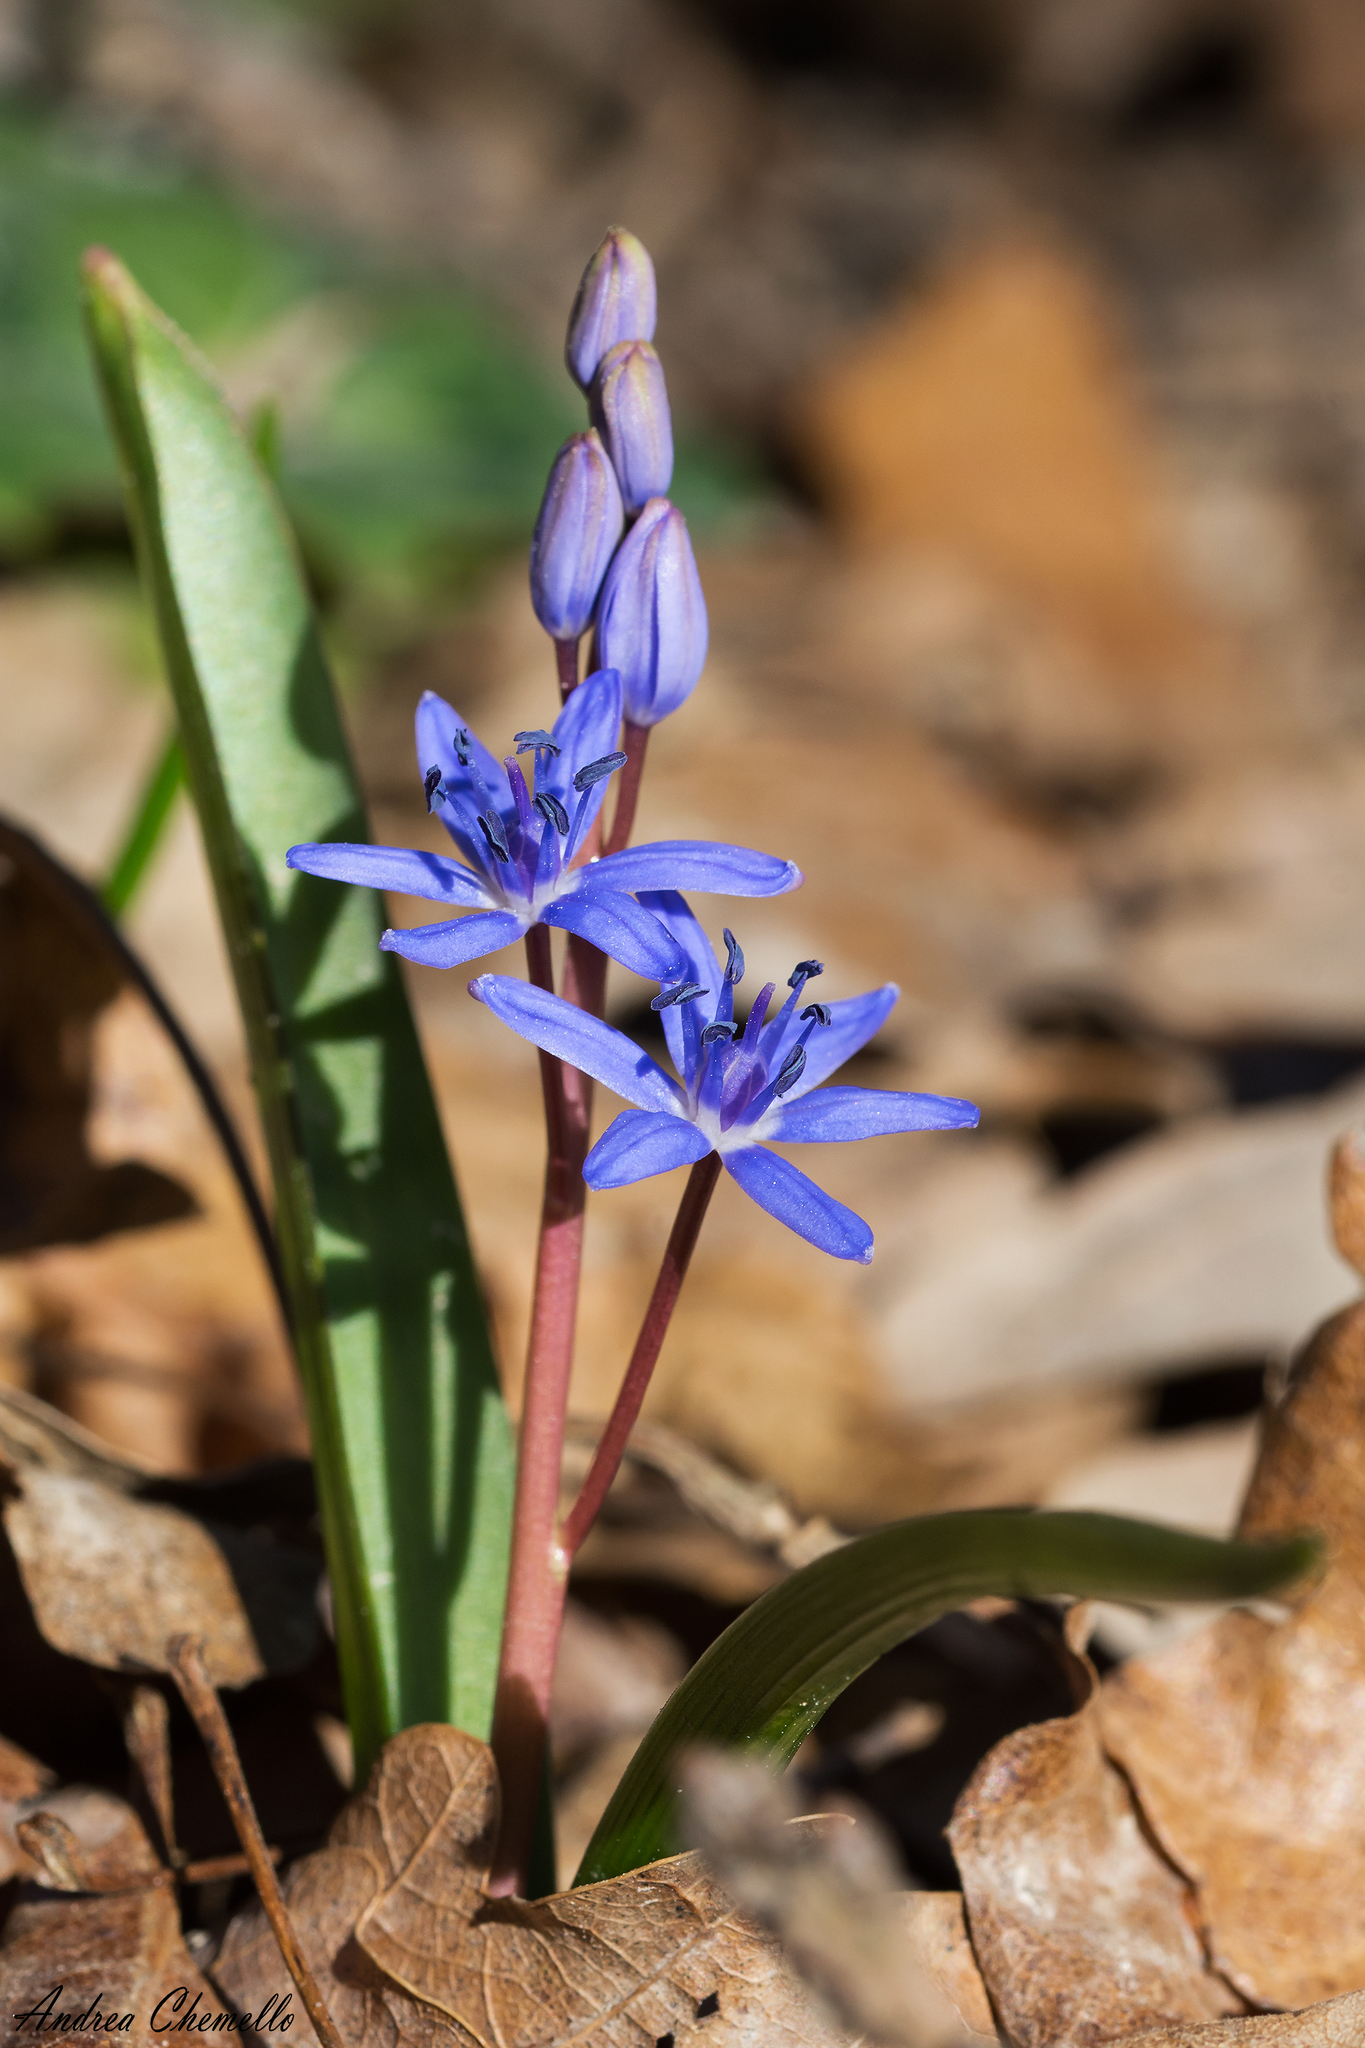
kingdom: Plantae
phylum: Tracheophyta
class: Liliopsida
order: Asparagales
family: Asparagaceae
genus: Scilla
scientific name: Scilla bifolia
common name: Alpine squill
